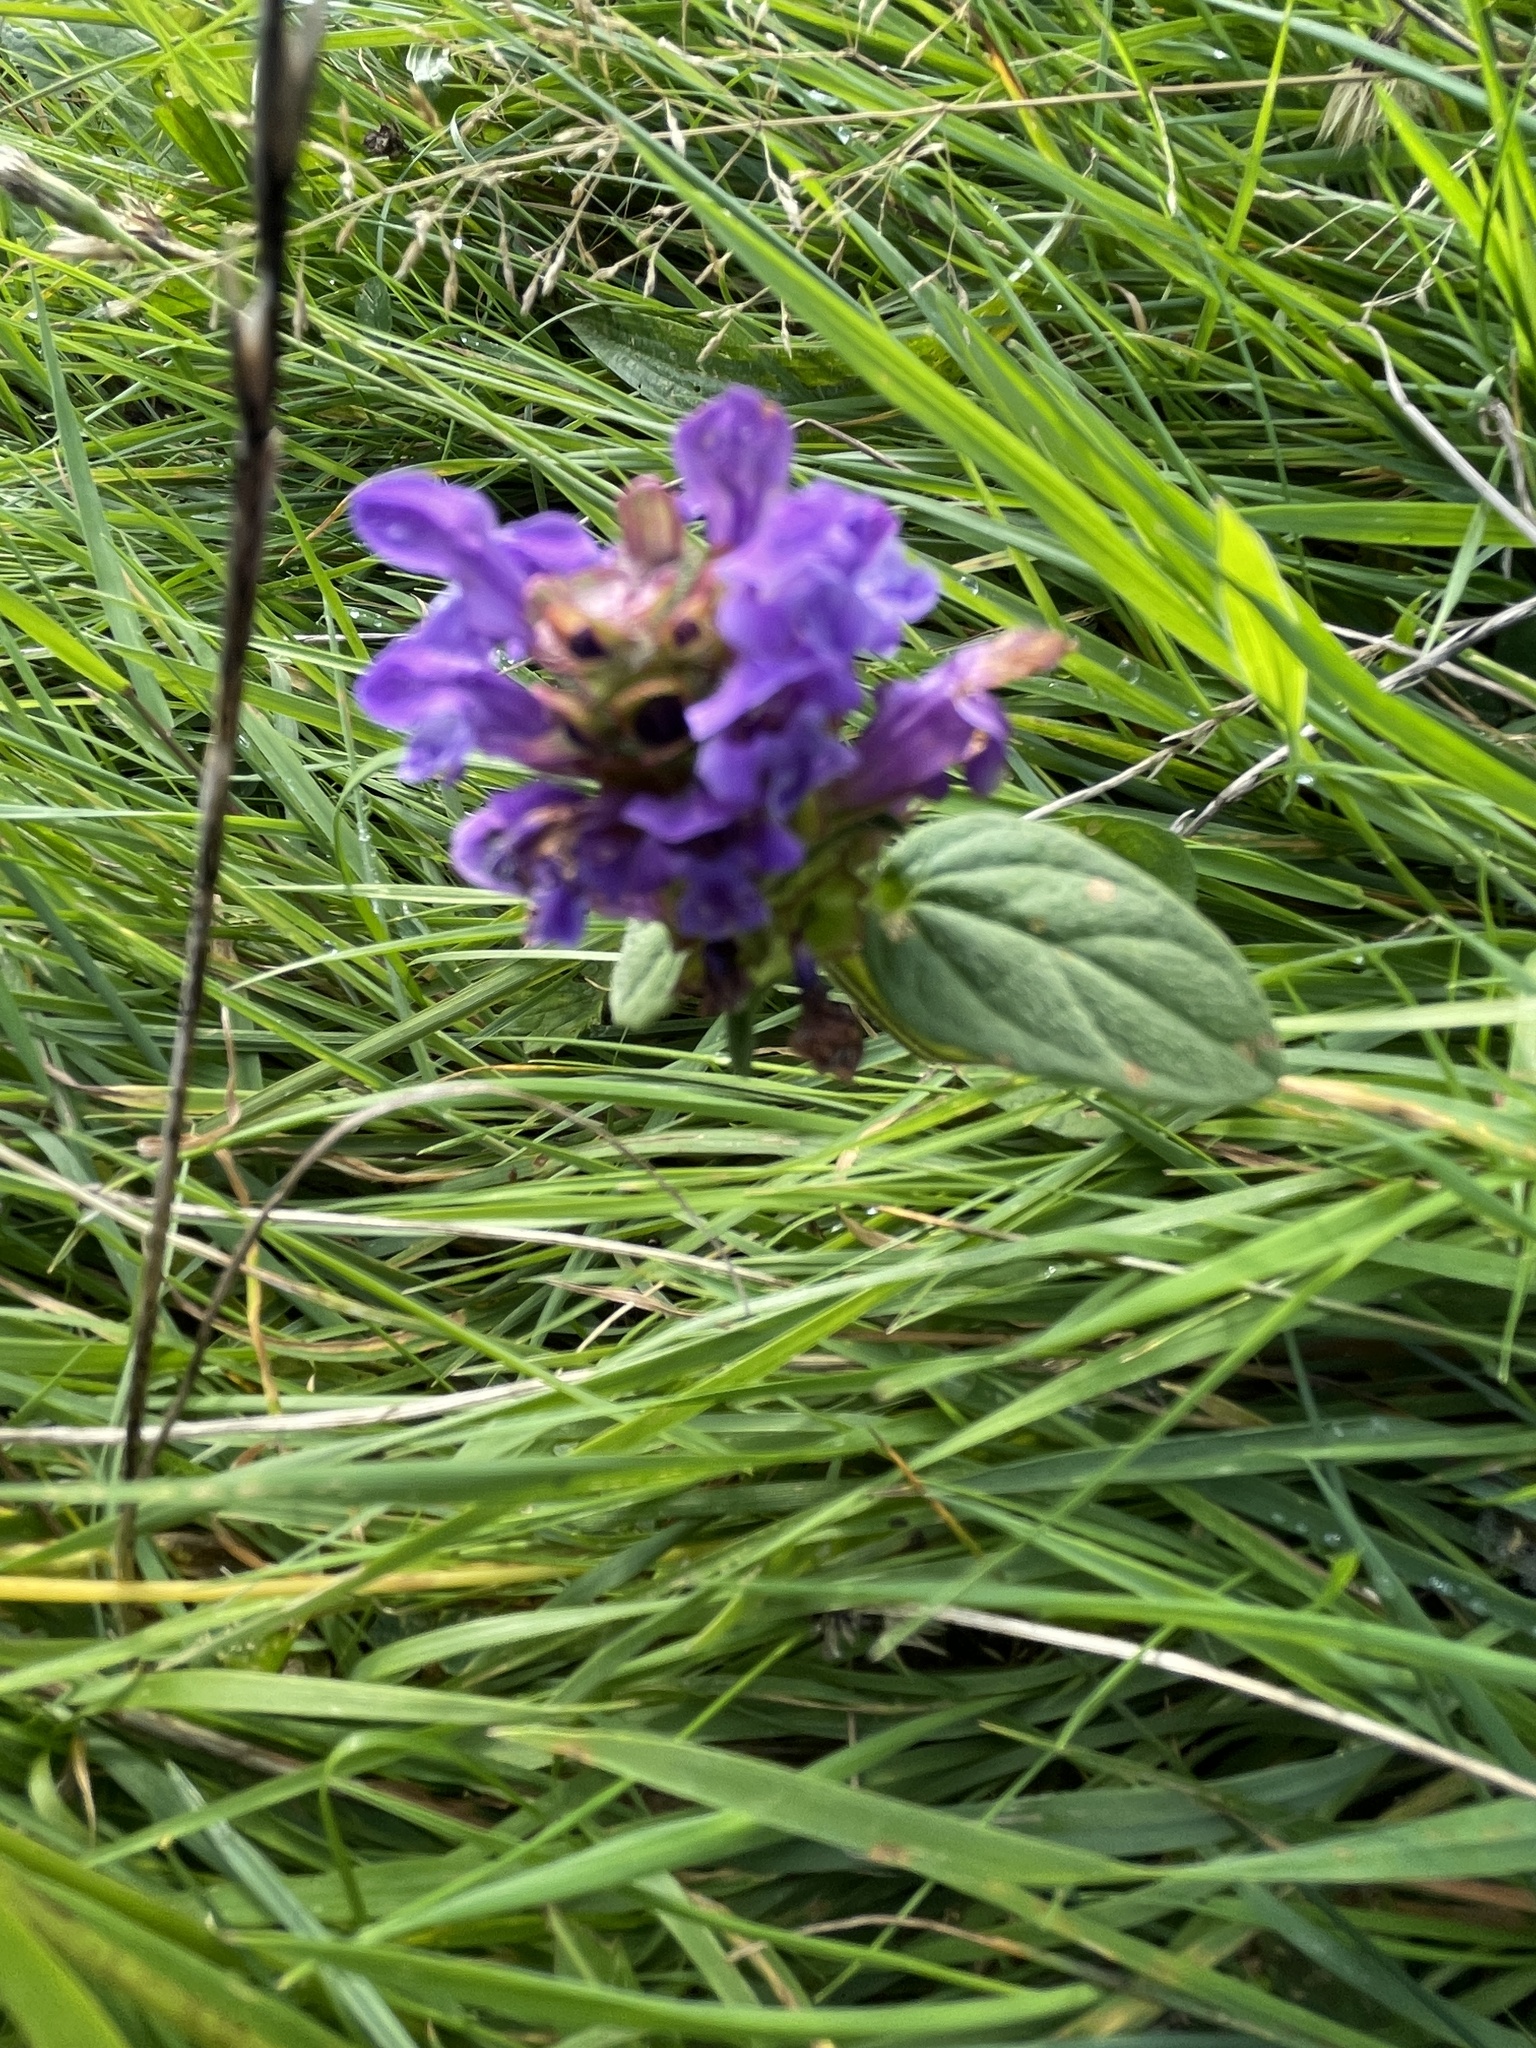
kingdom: Plantae
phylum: Tracheophyta
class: Magnoliopsida
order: Lamiales
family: Lamiaceae
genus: Prunella
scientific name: Prunella vulgaris
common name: Heal-all
